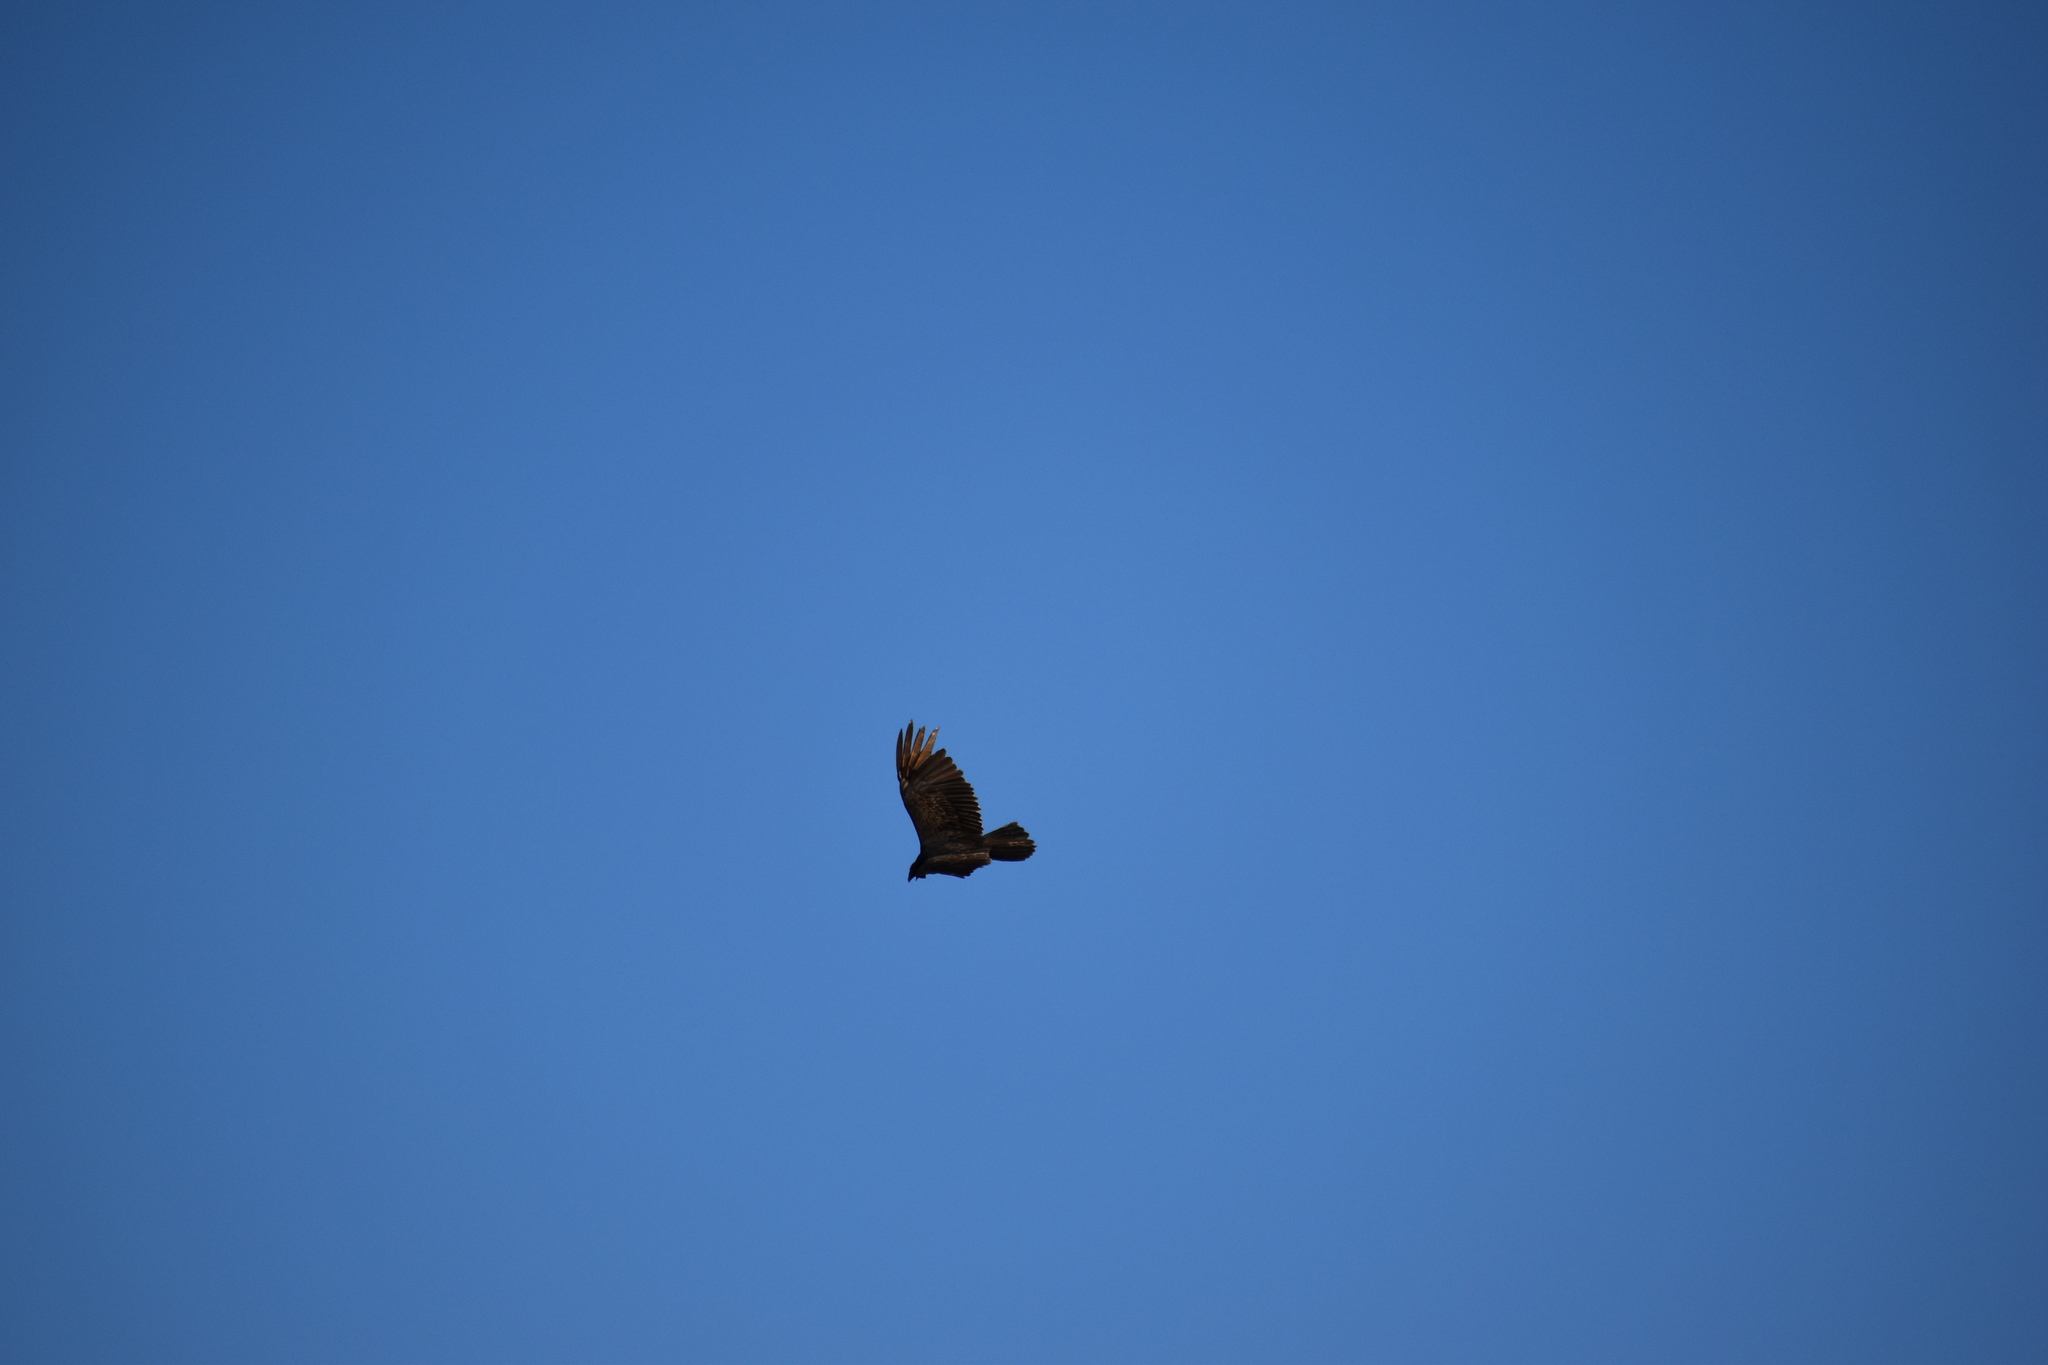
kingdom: Animalia
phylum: Chordata
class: Aves
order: Accipitriformes
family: Cathartidae
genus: Cathartes
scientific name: Cathartes aura
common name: Turkey vulture
